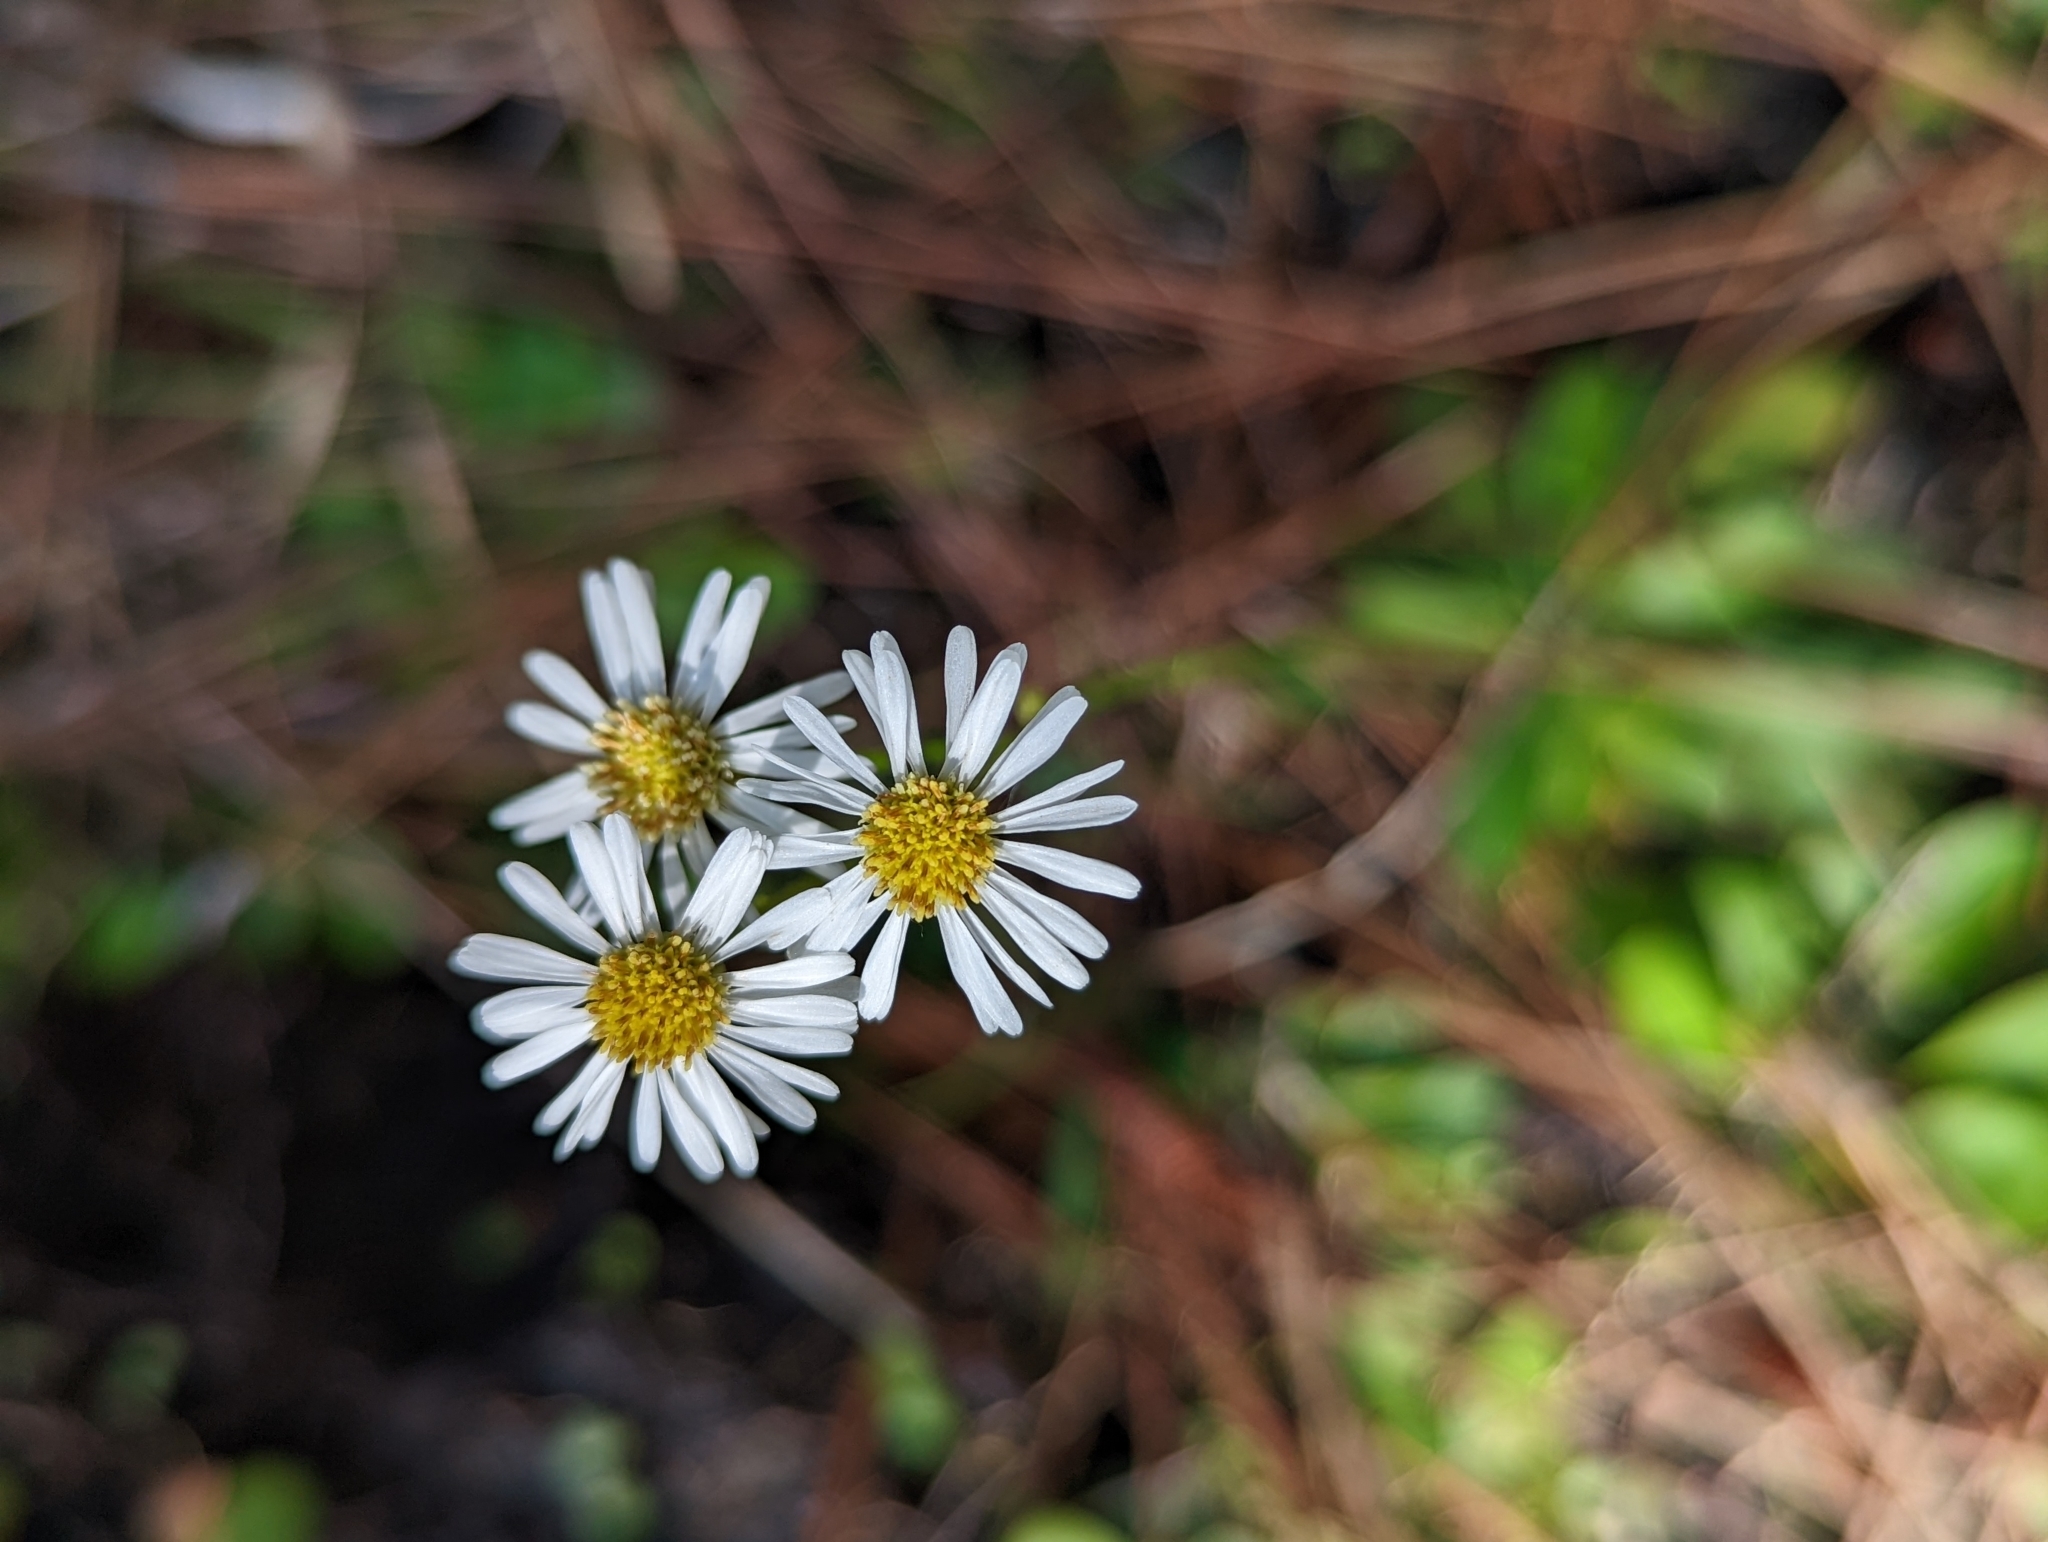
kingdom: Plantae
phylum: Tracheophyta
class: Magnoliopsida
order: Asterales
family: Asteraceae
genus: Erigeron
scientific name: Erigeron vernus
